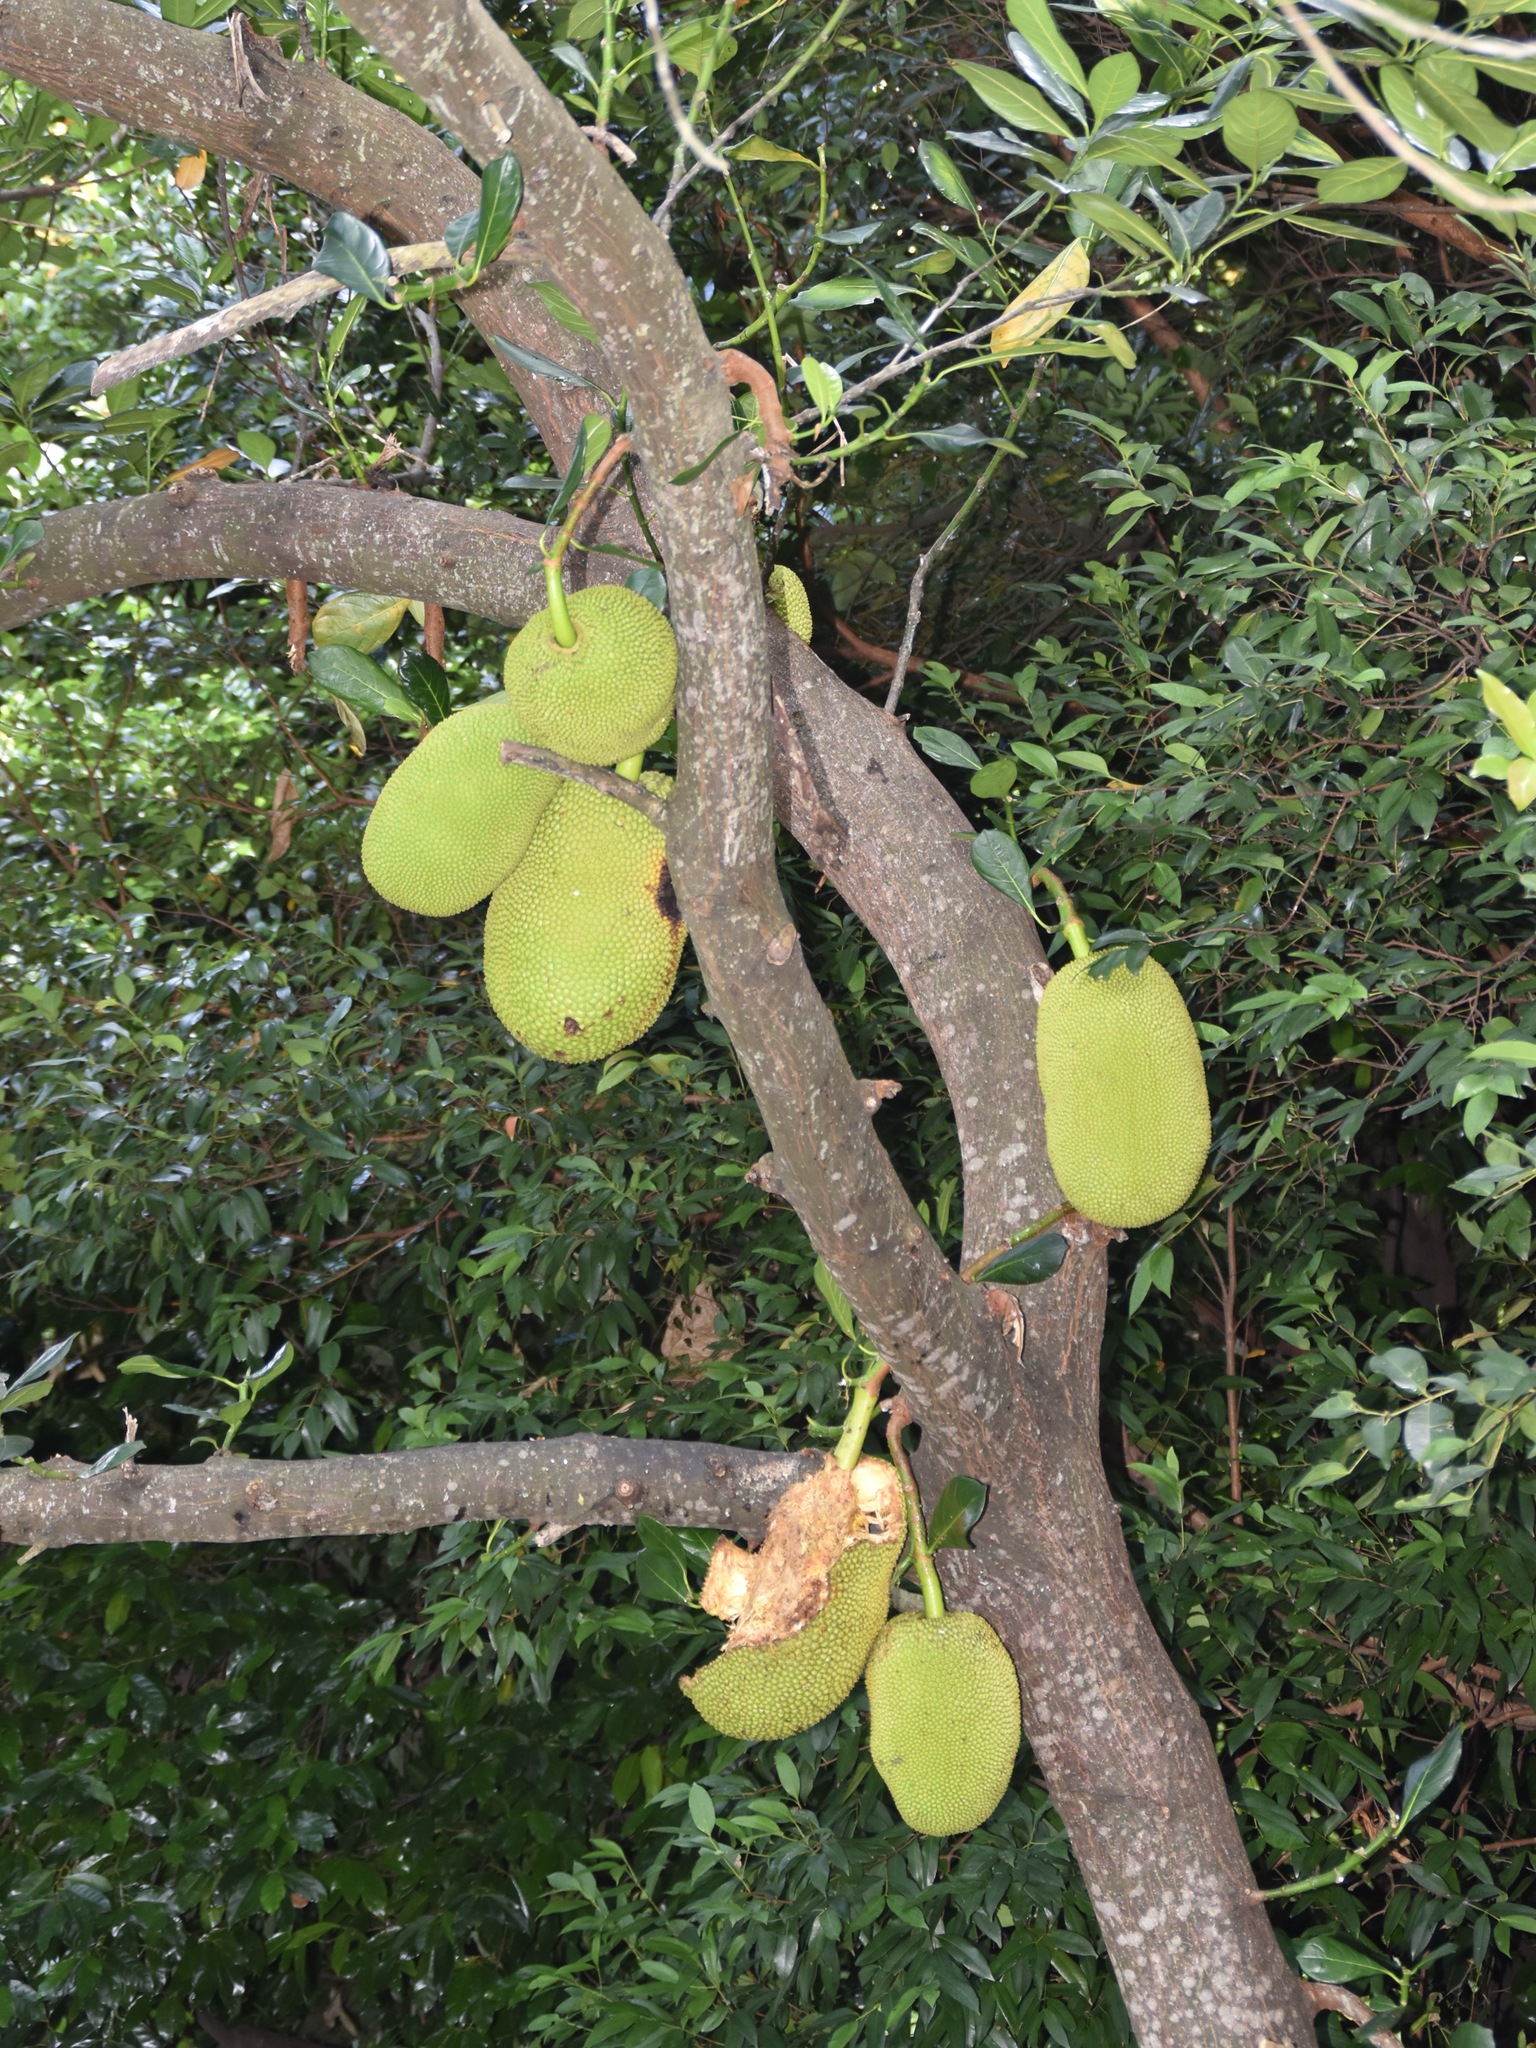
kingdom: Plantae
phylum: Tracheophyta
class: Magnoliopsida
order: Rosales
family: Moraceae
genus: Artocarpus
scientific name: Artocarpus heterophyllus
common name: Jackfruit
